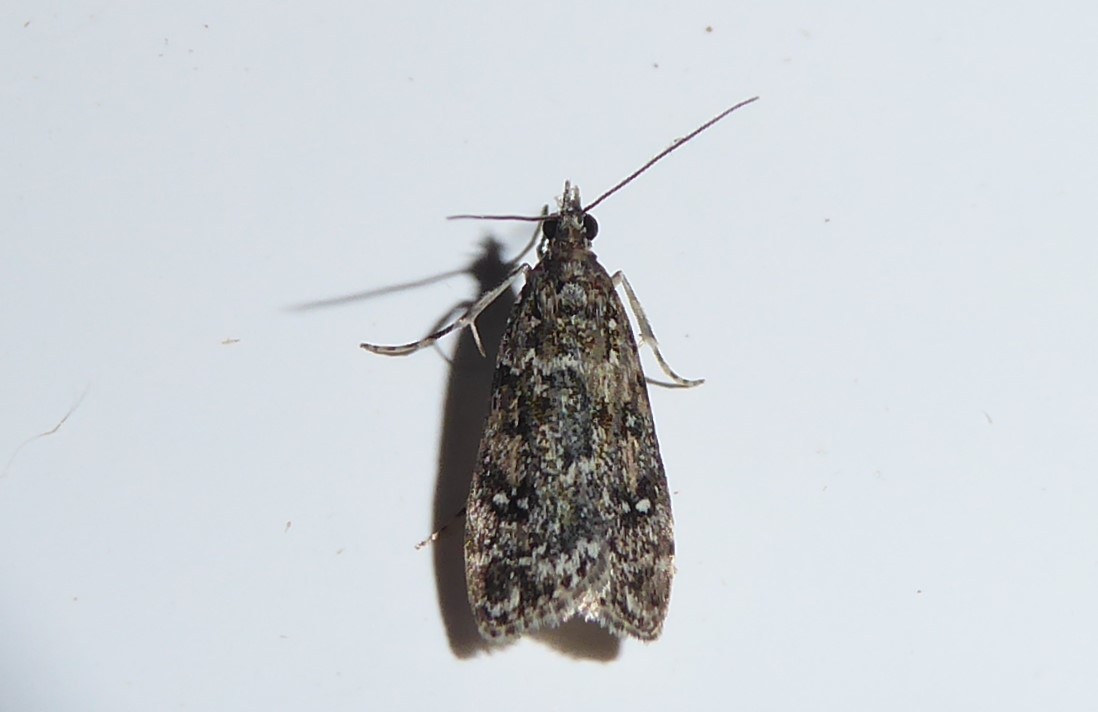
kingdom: Animalia
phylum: Arthropoda
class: Insecta
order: Lepidoptera
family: Crambidae
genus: Eudonia
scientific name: Eudonia philerga
